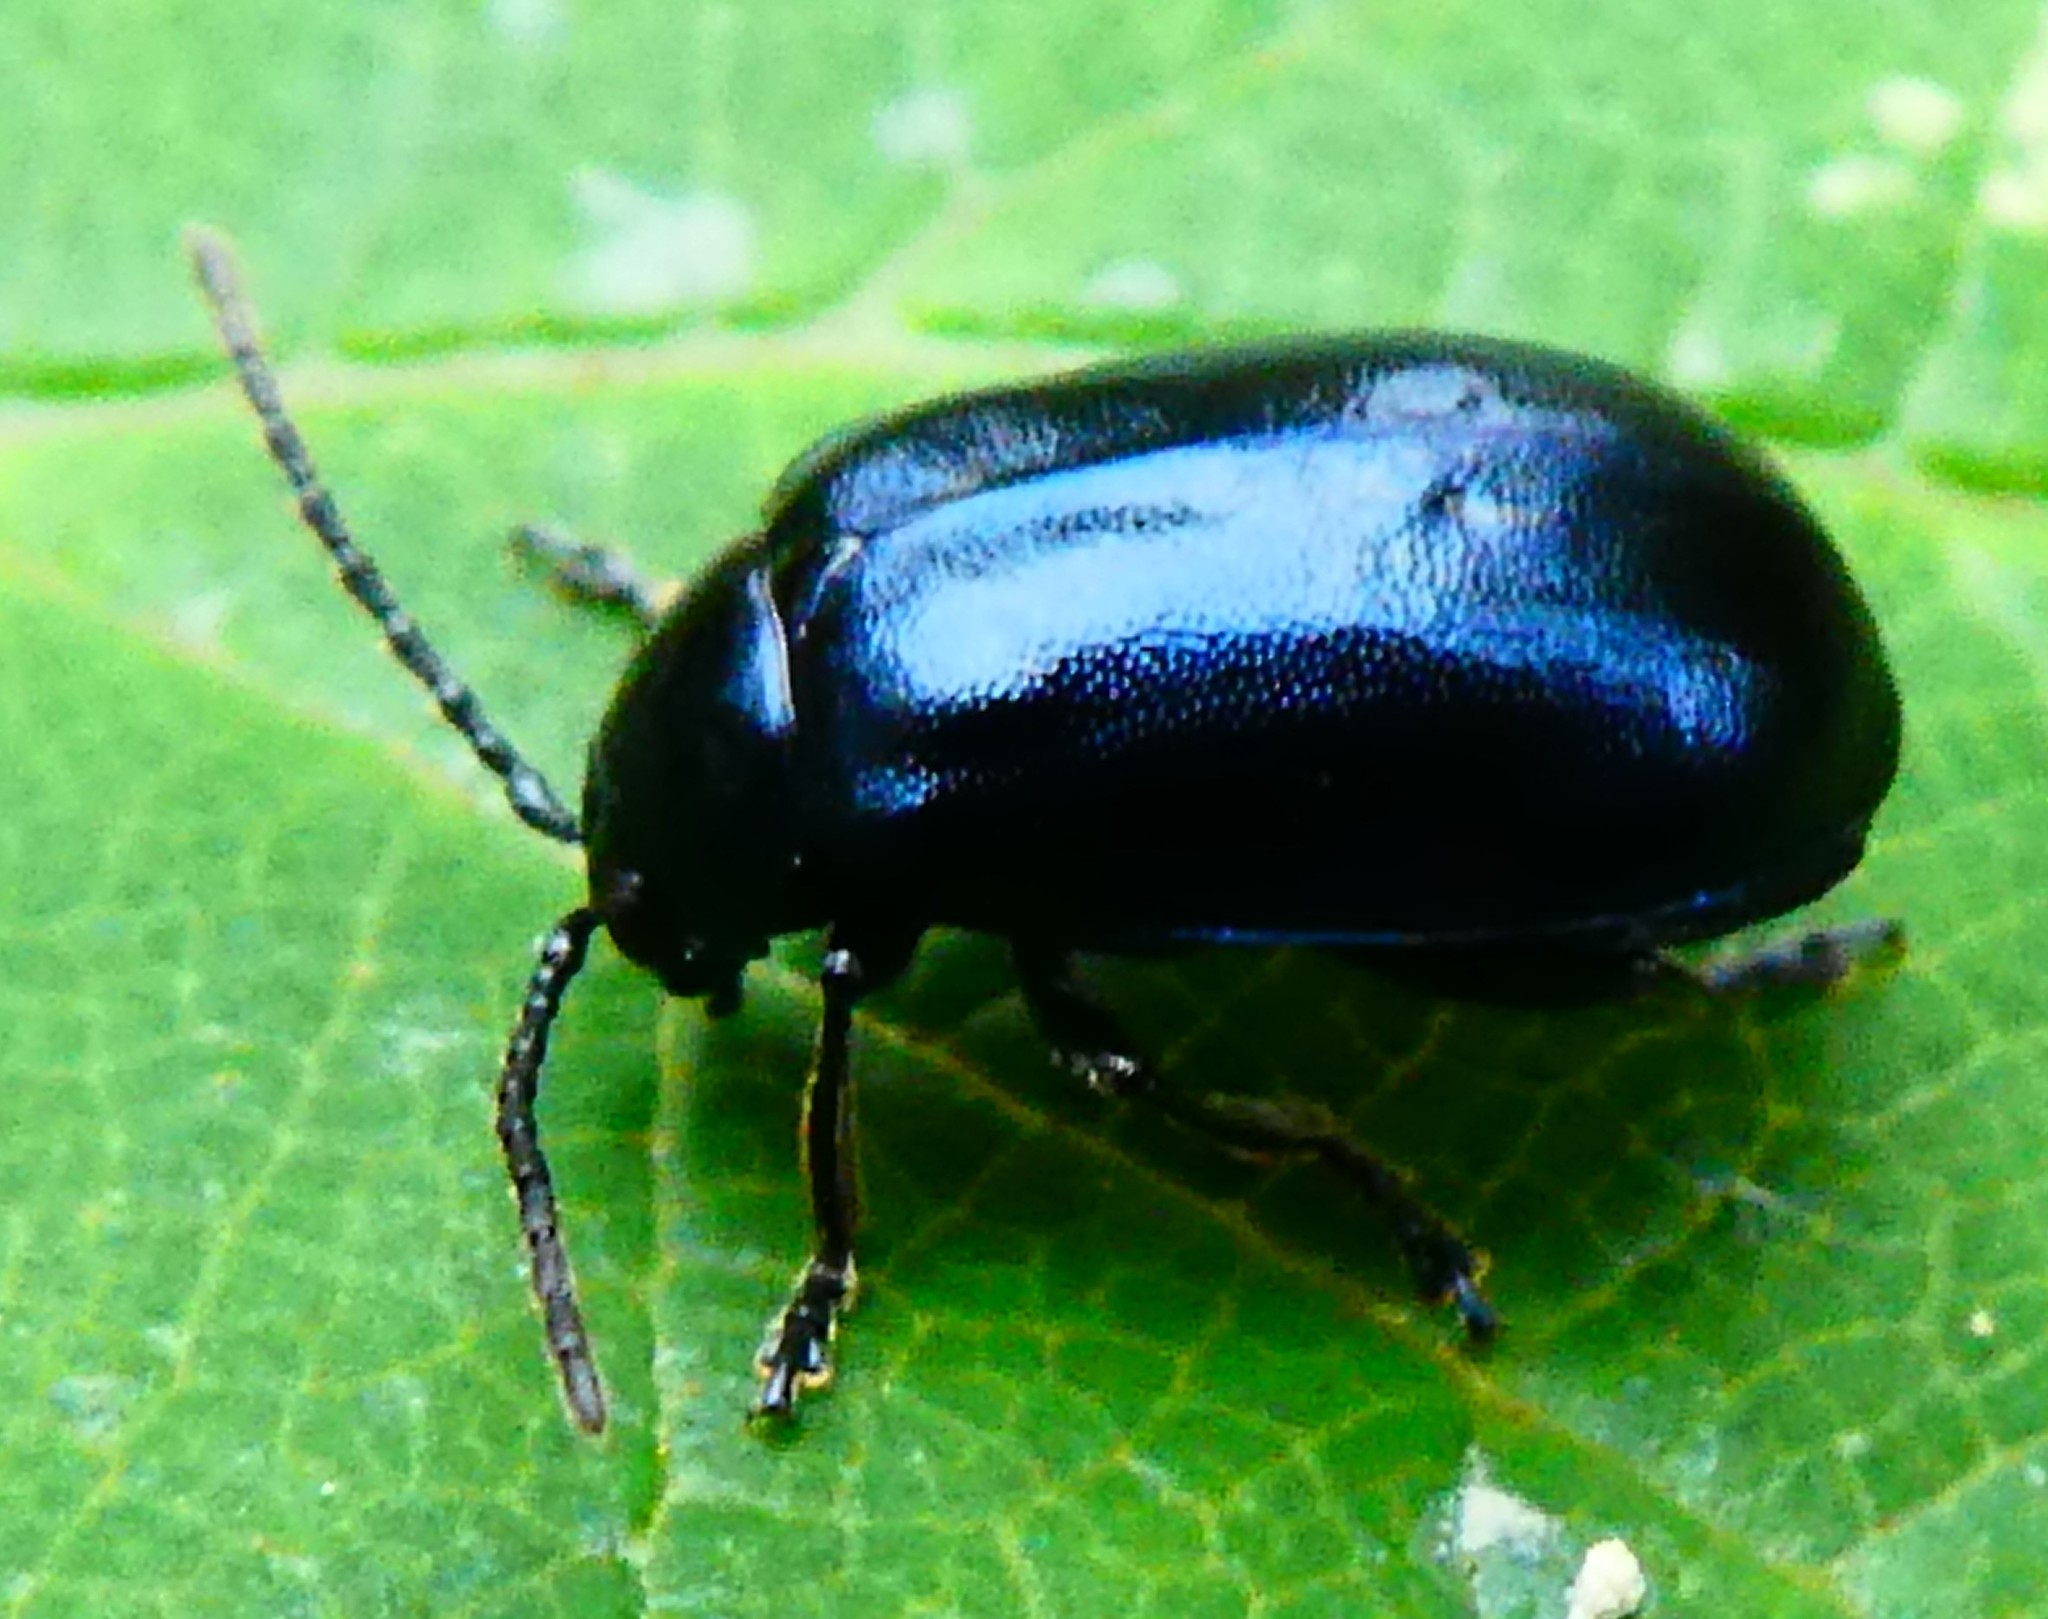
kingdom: Animalia
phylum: Arthropoda
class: Insecta
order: Coleoptera
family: Chrysomelidae
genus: Agelastica
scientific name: Agelastica alni
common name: Alder leaf beetle
